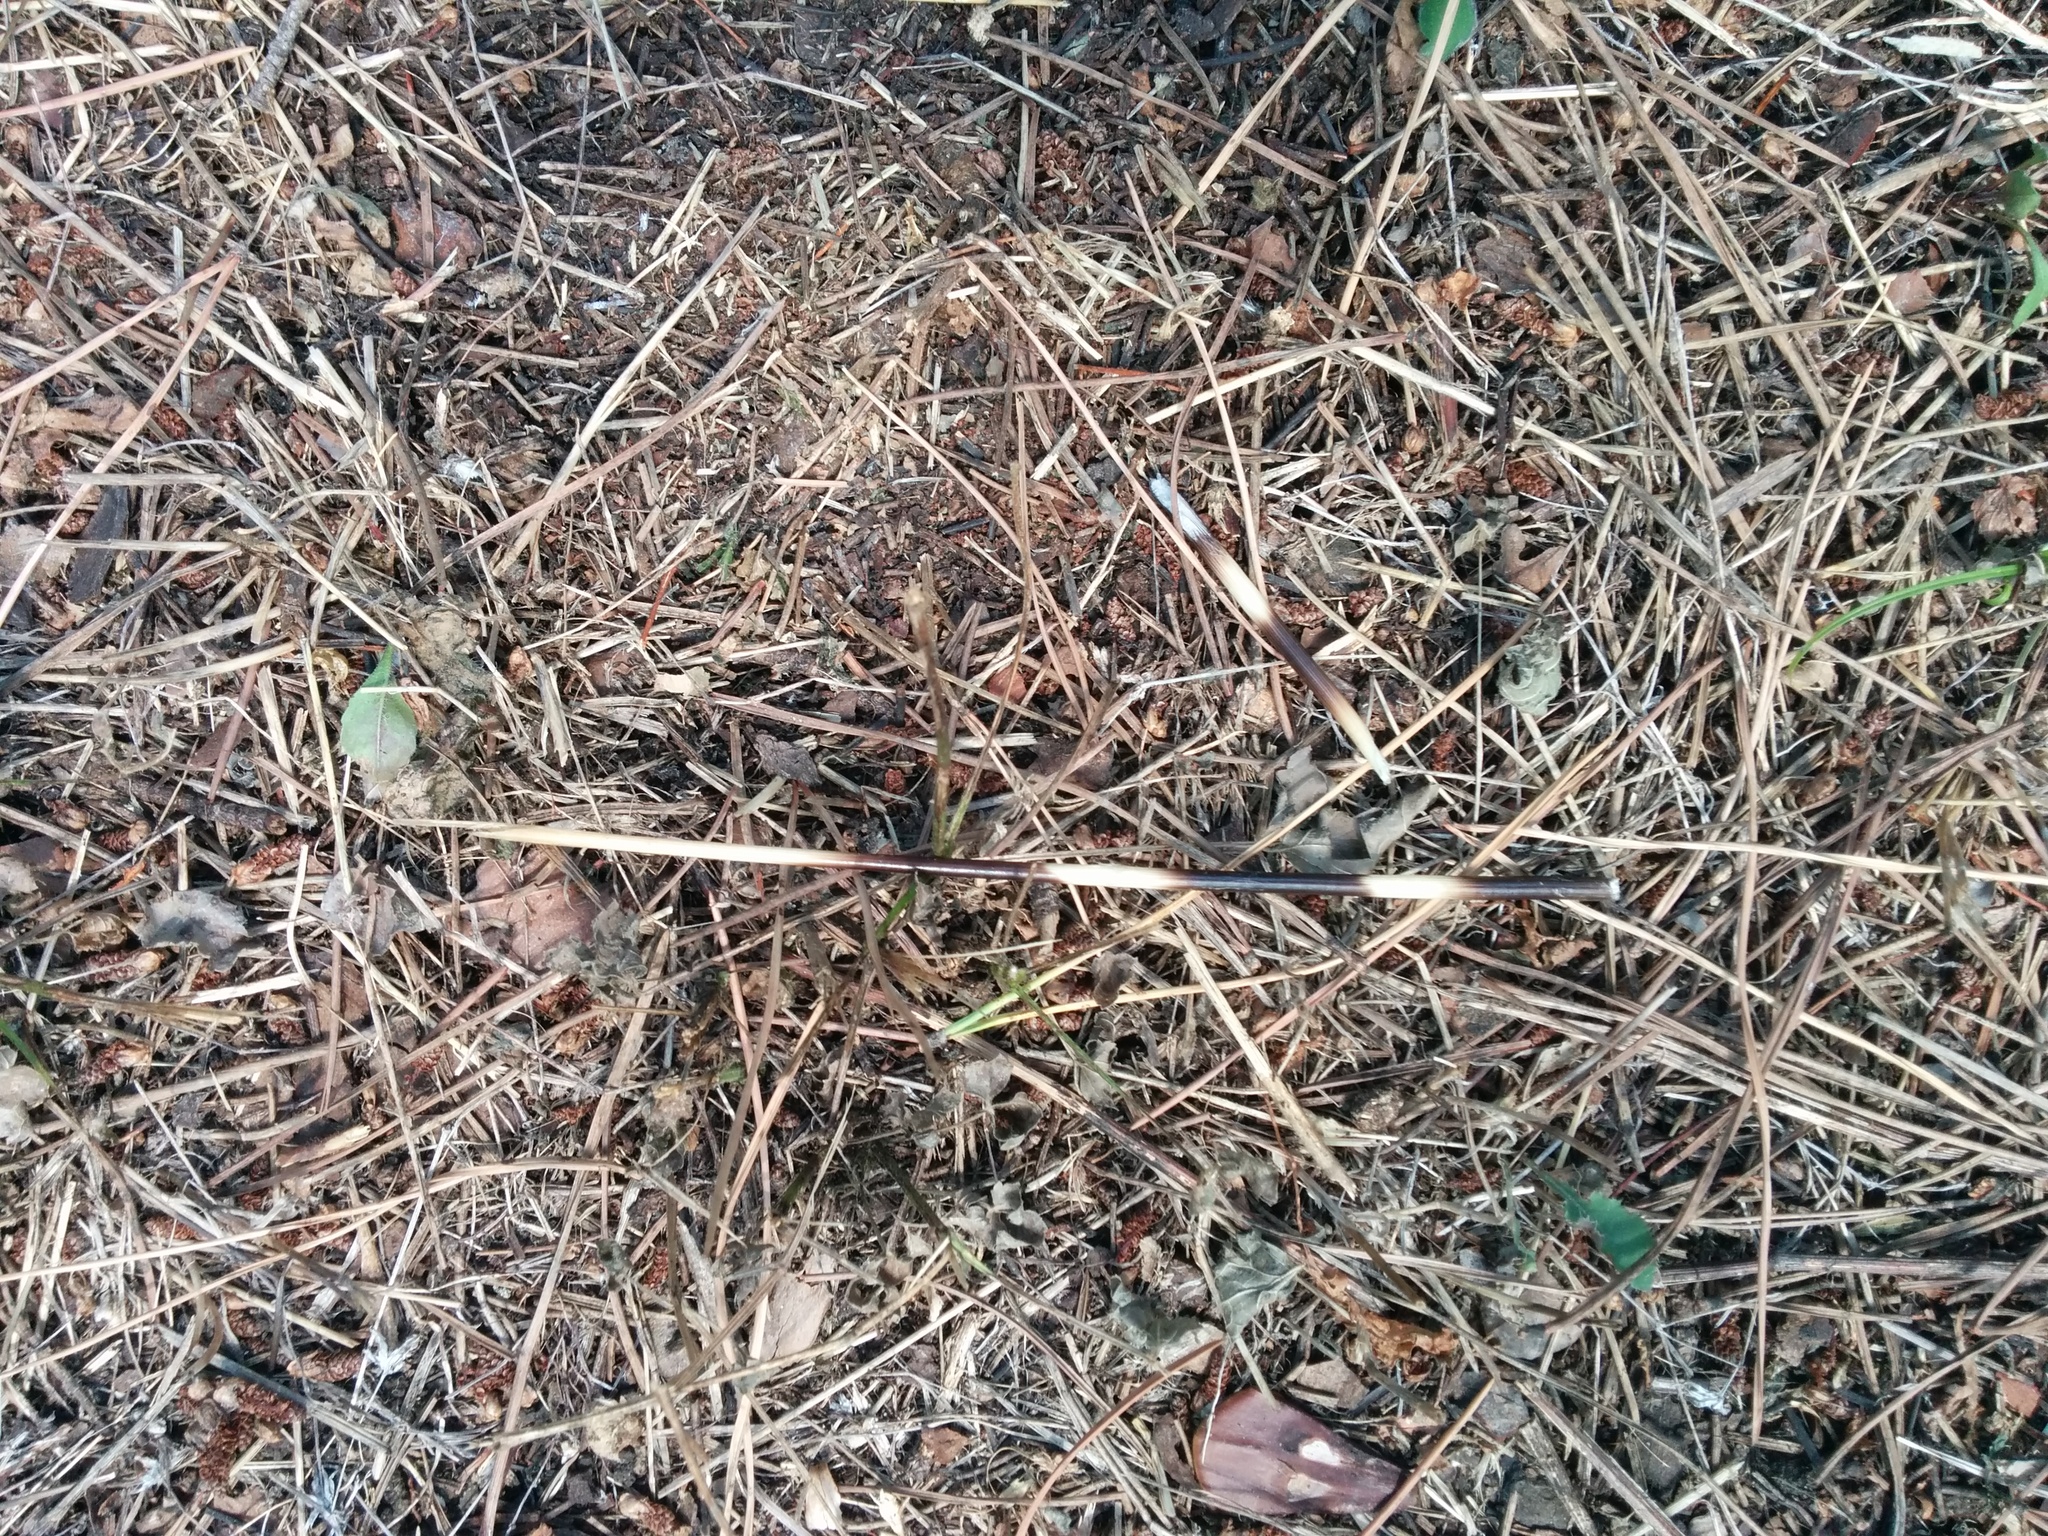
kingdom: Animalia
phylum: Chordata
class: Mammalia
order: Rodentia
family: Hystricidae
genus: Hystrix
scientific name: Hystrix cristata
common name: Crested porcupine
